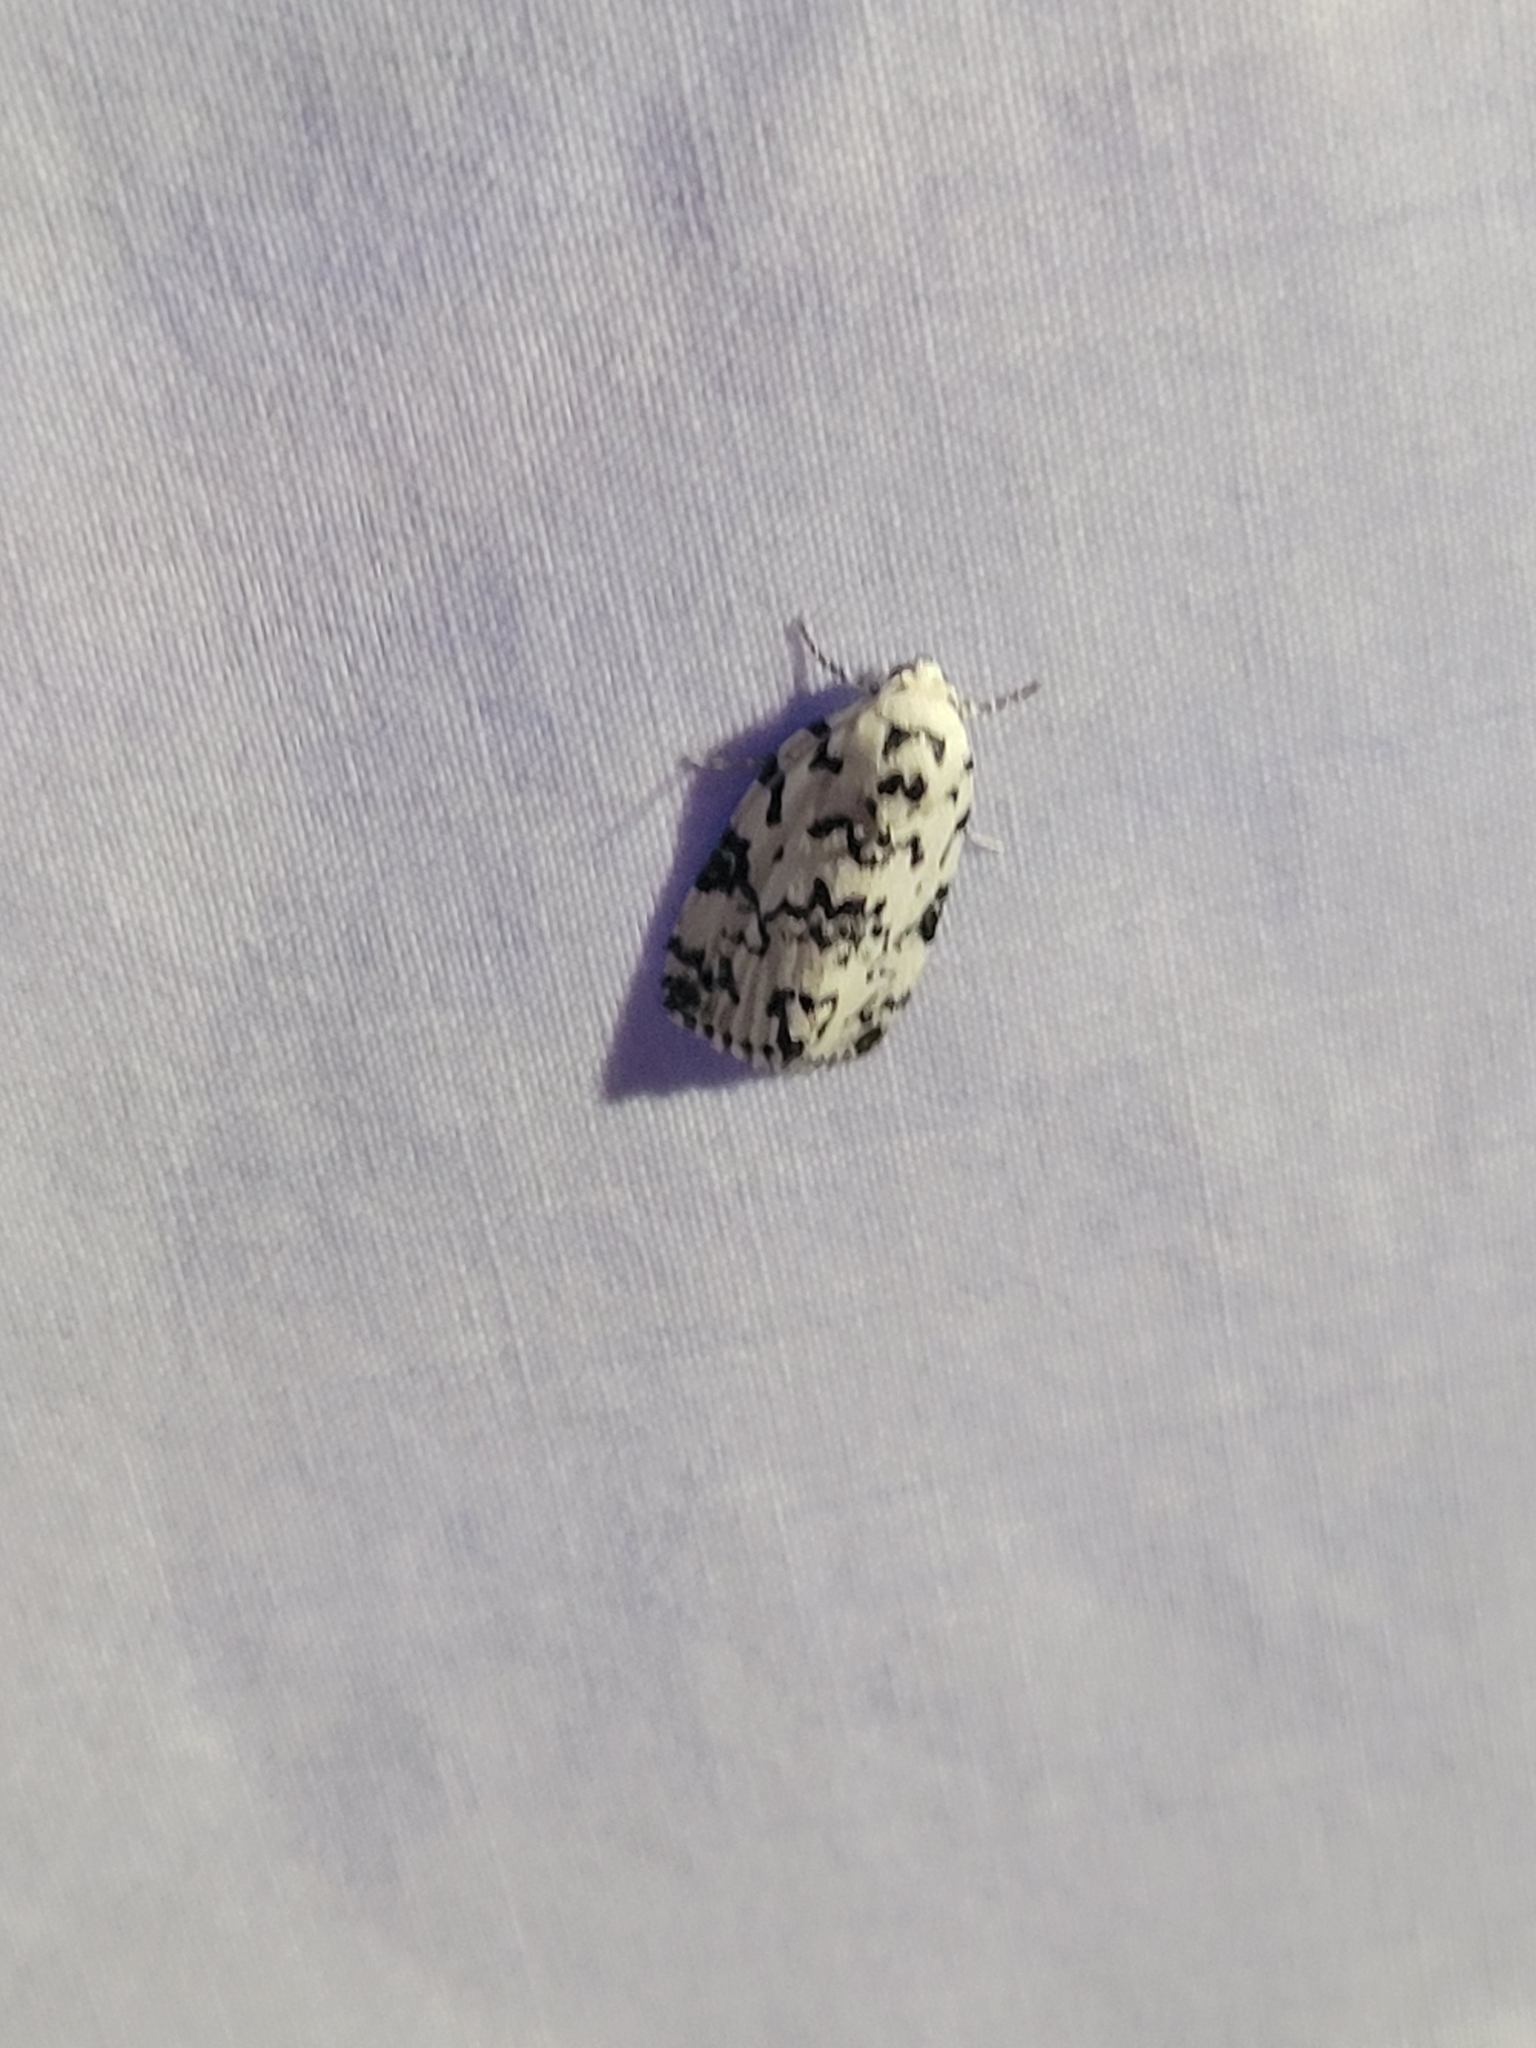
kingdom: Animalia
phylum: Arthropoda
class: Insecta
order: Lepidoptera
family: Noctuidae
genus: Polygrammate
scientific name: Polygrammate hebraeicum
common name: Hebrew moth
